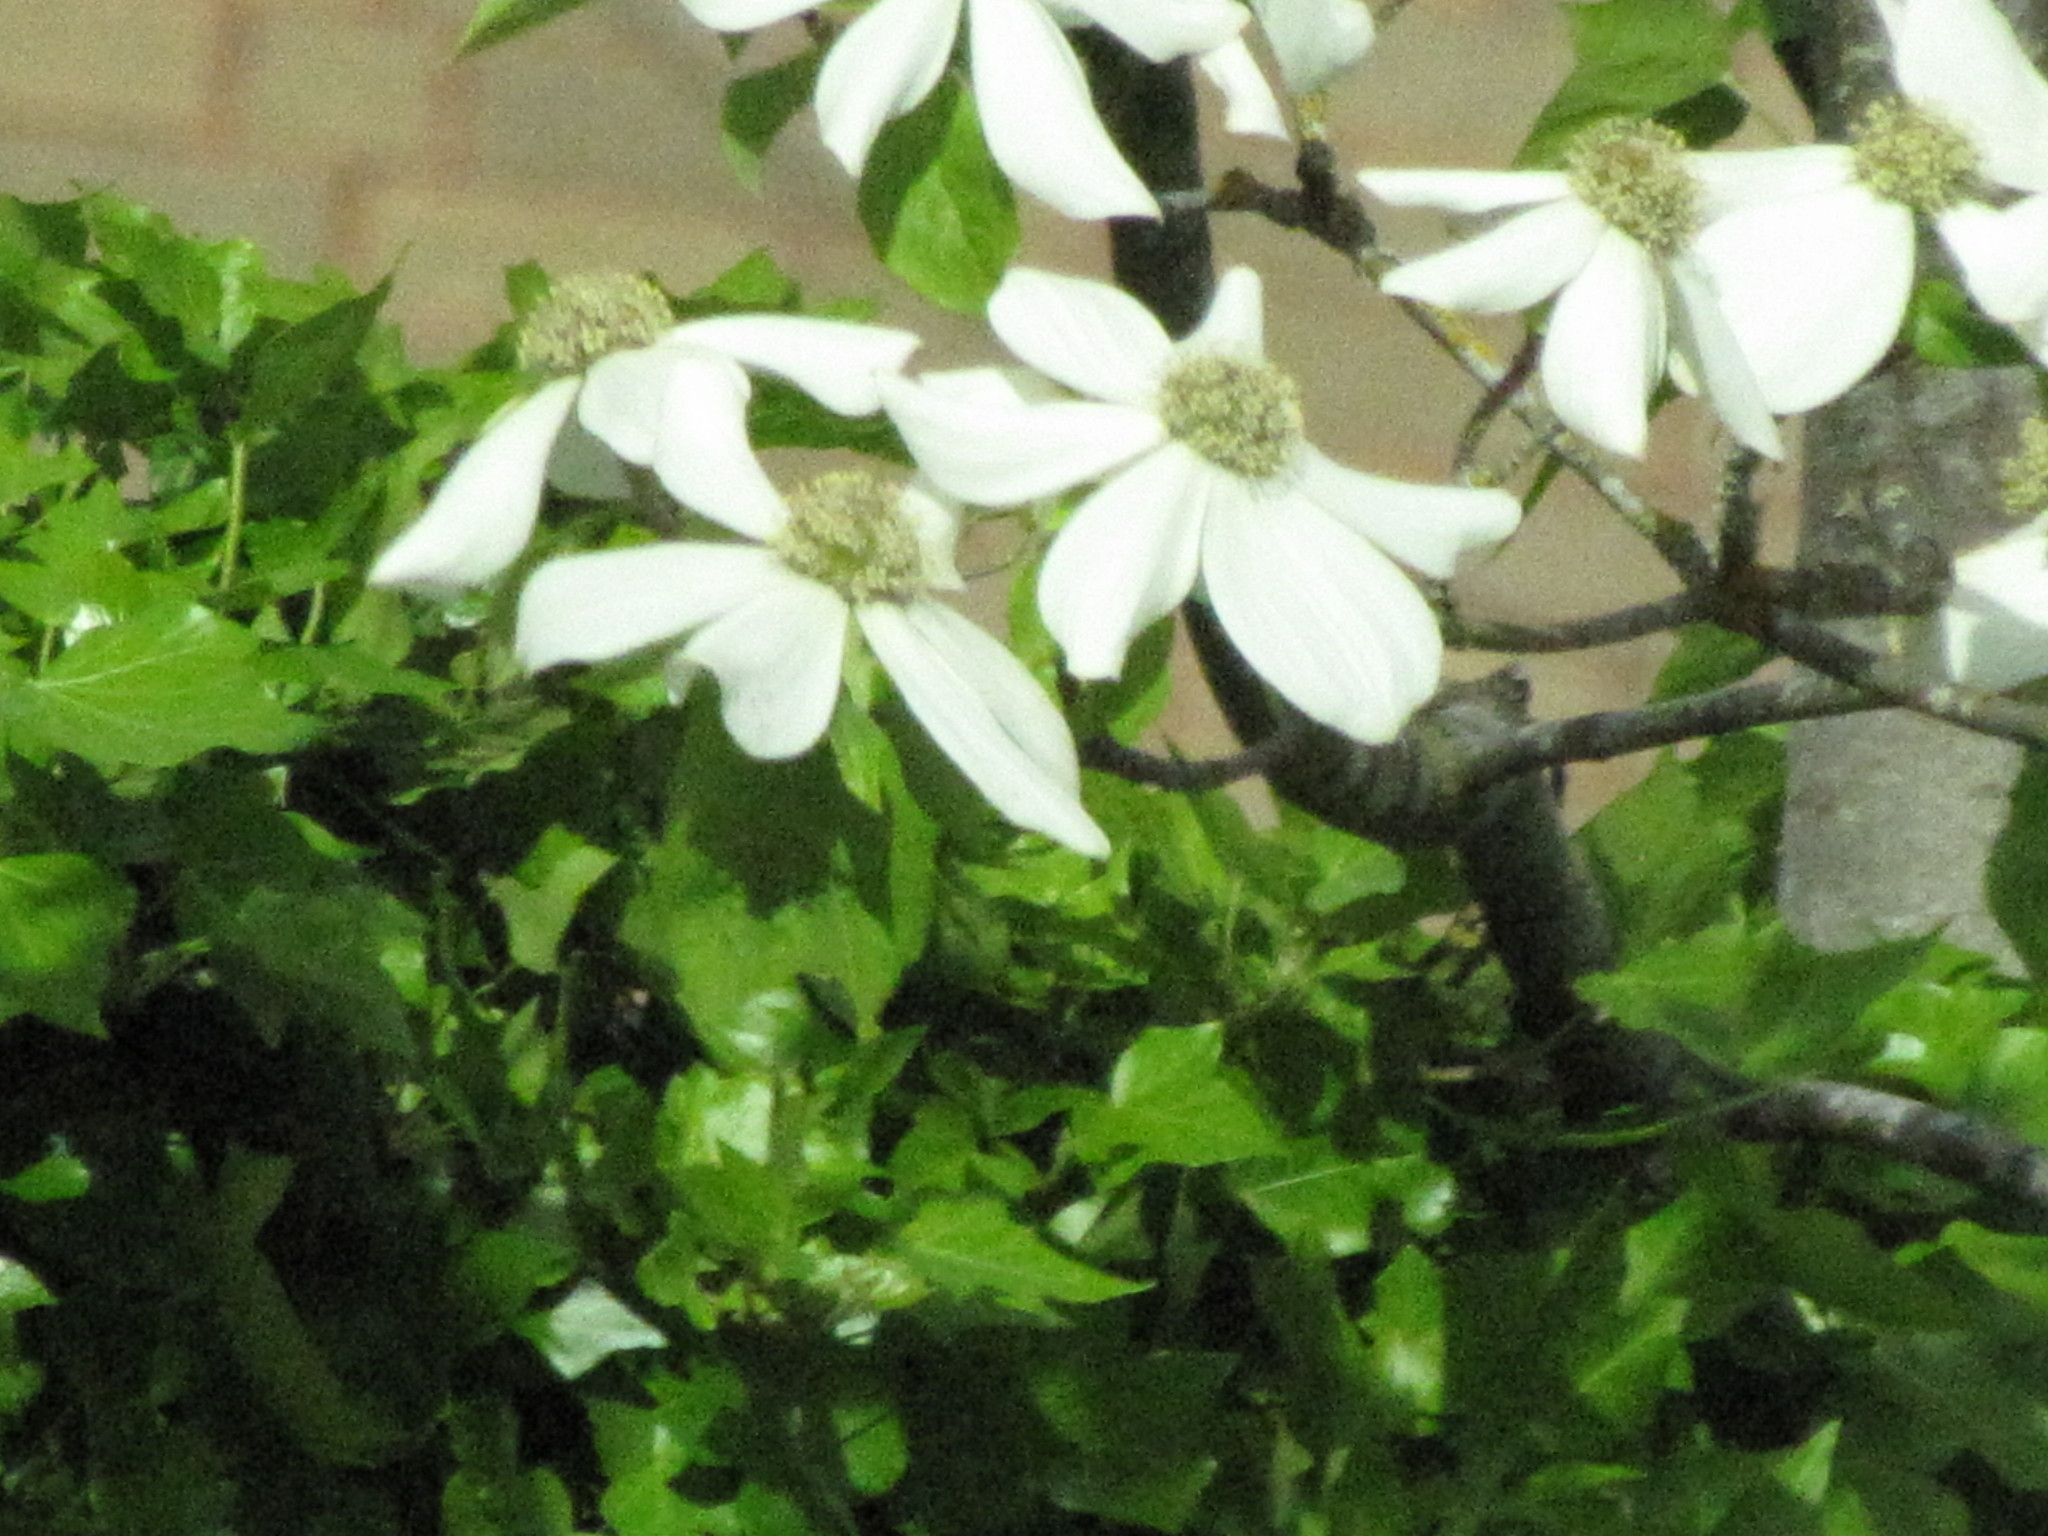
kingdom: Plantae
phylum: Tracheophyta
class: Magnoliopsida
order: Cornales
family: Cornaceae
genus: Cornus
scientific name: Cornus nuttallii
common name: Pacific dogwood
